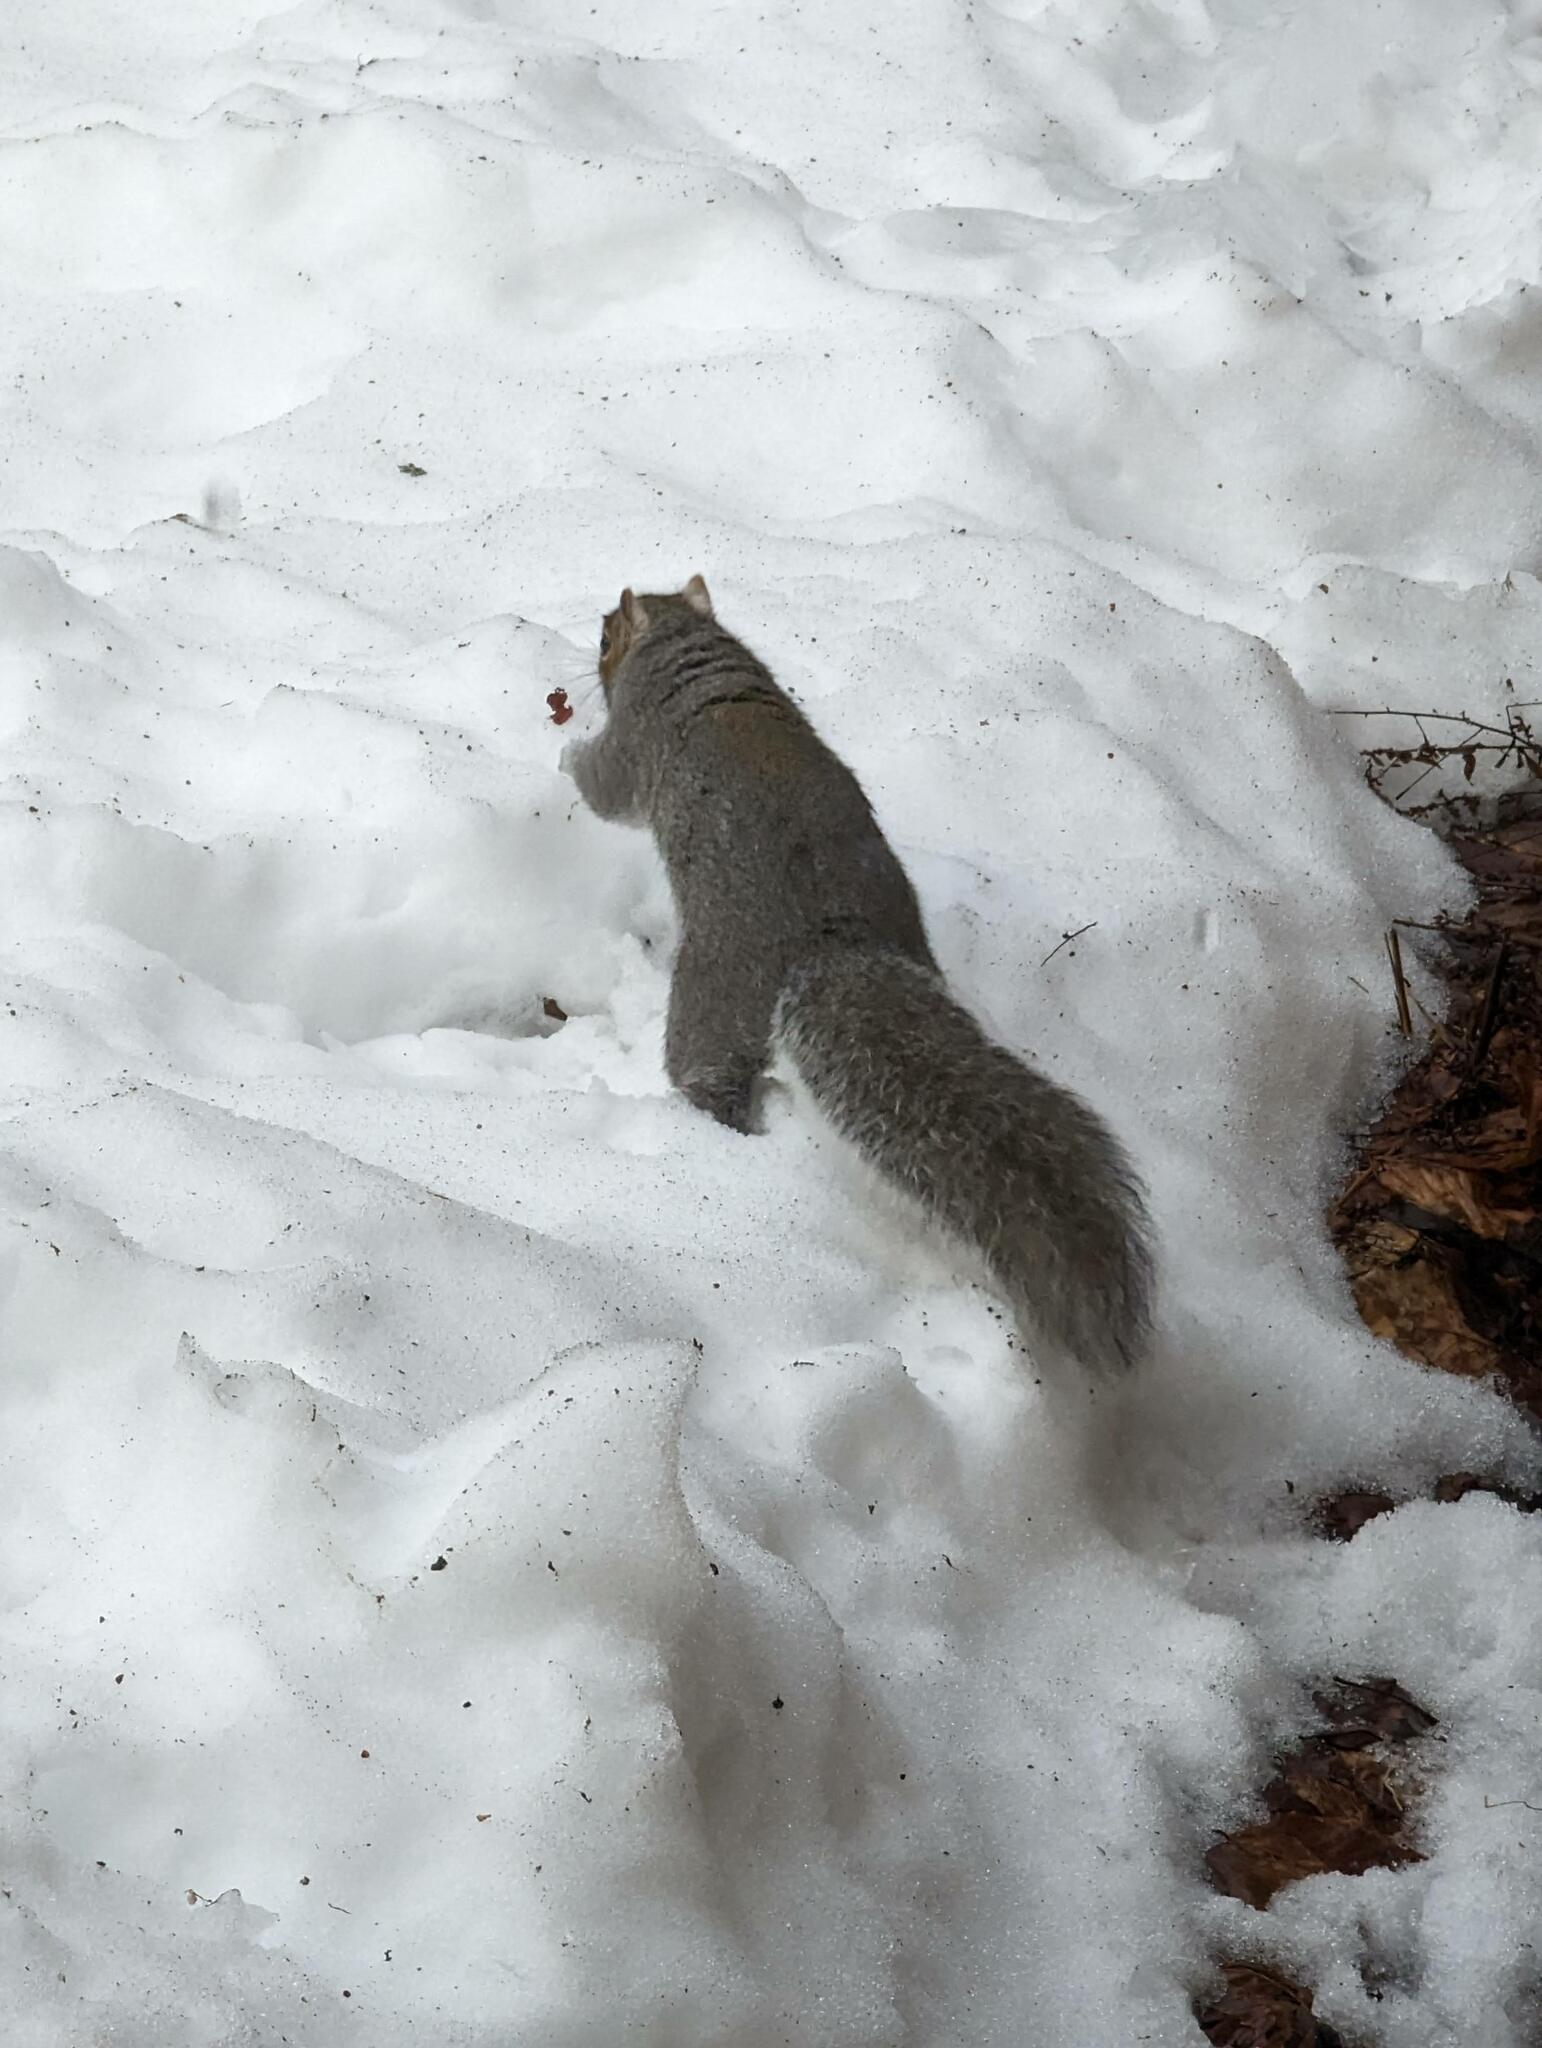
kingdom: Animalia
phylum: Chordata
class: Mammalia
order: Rodentia
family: Sciuridae
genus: Sciurus
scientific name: Sciurus carolinensis
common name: Eastern gray squirrel
